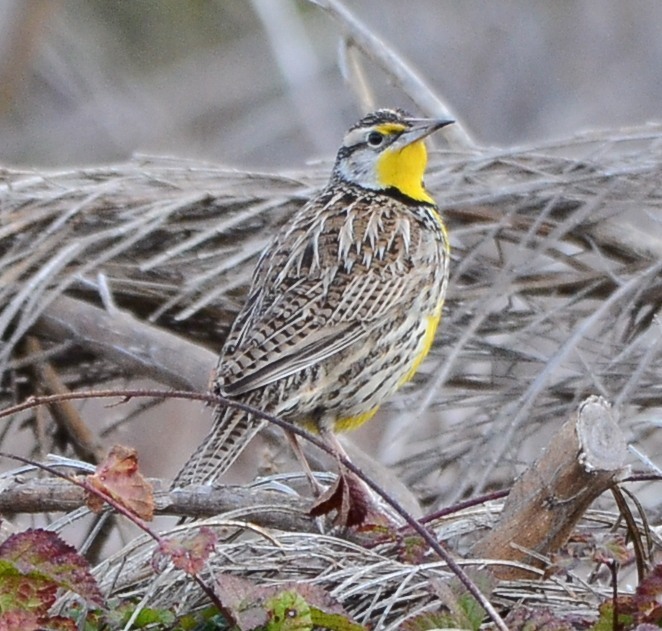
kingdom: Animalia
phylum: Chordata
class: Aves
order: Passeriformes
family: Icteridae
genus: Sturnella
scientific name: Sturnella neglecta
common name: Western meadowlark
